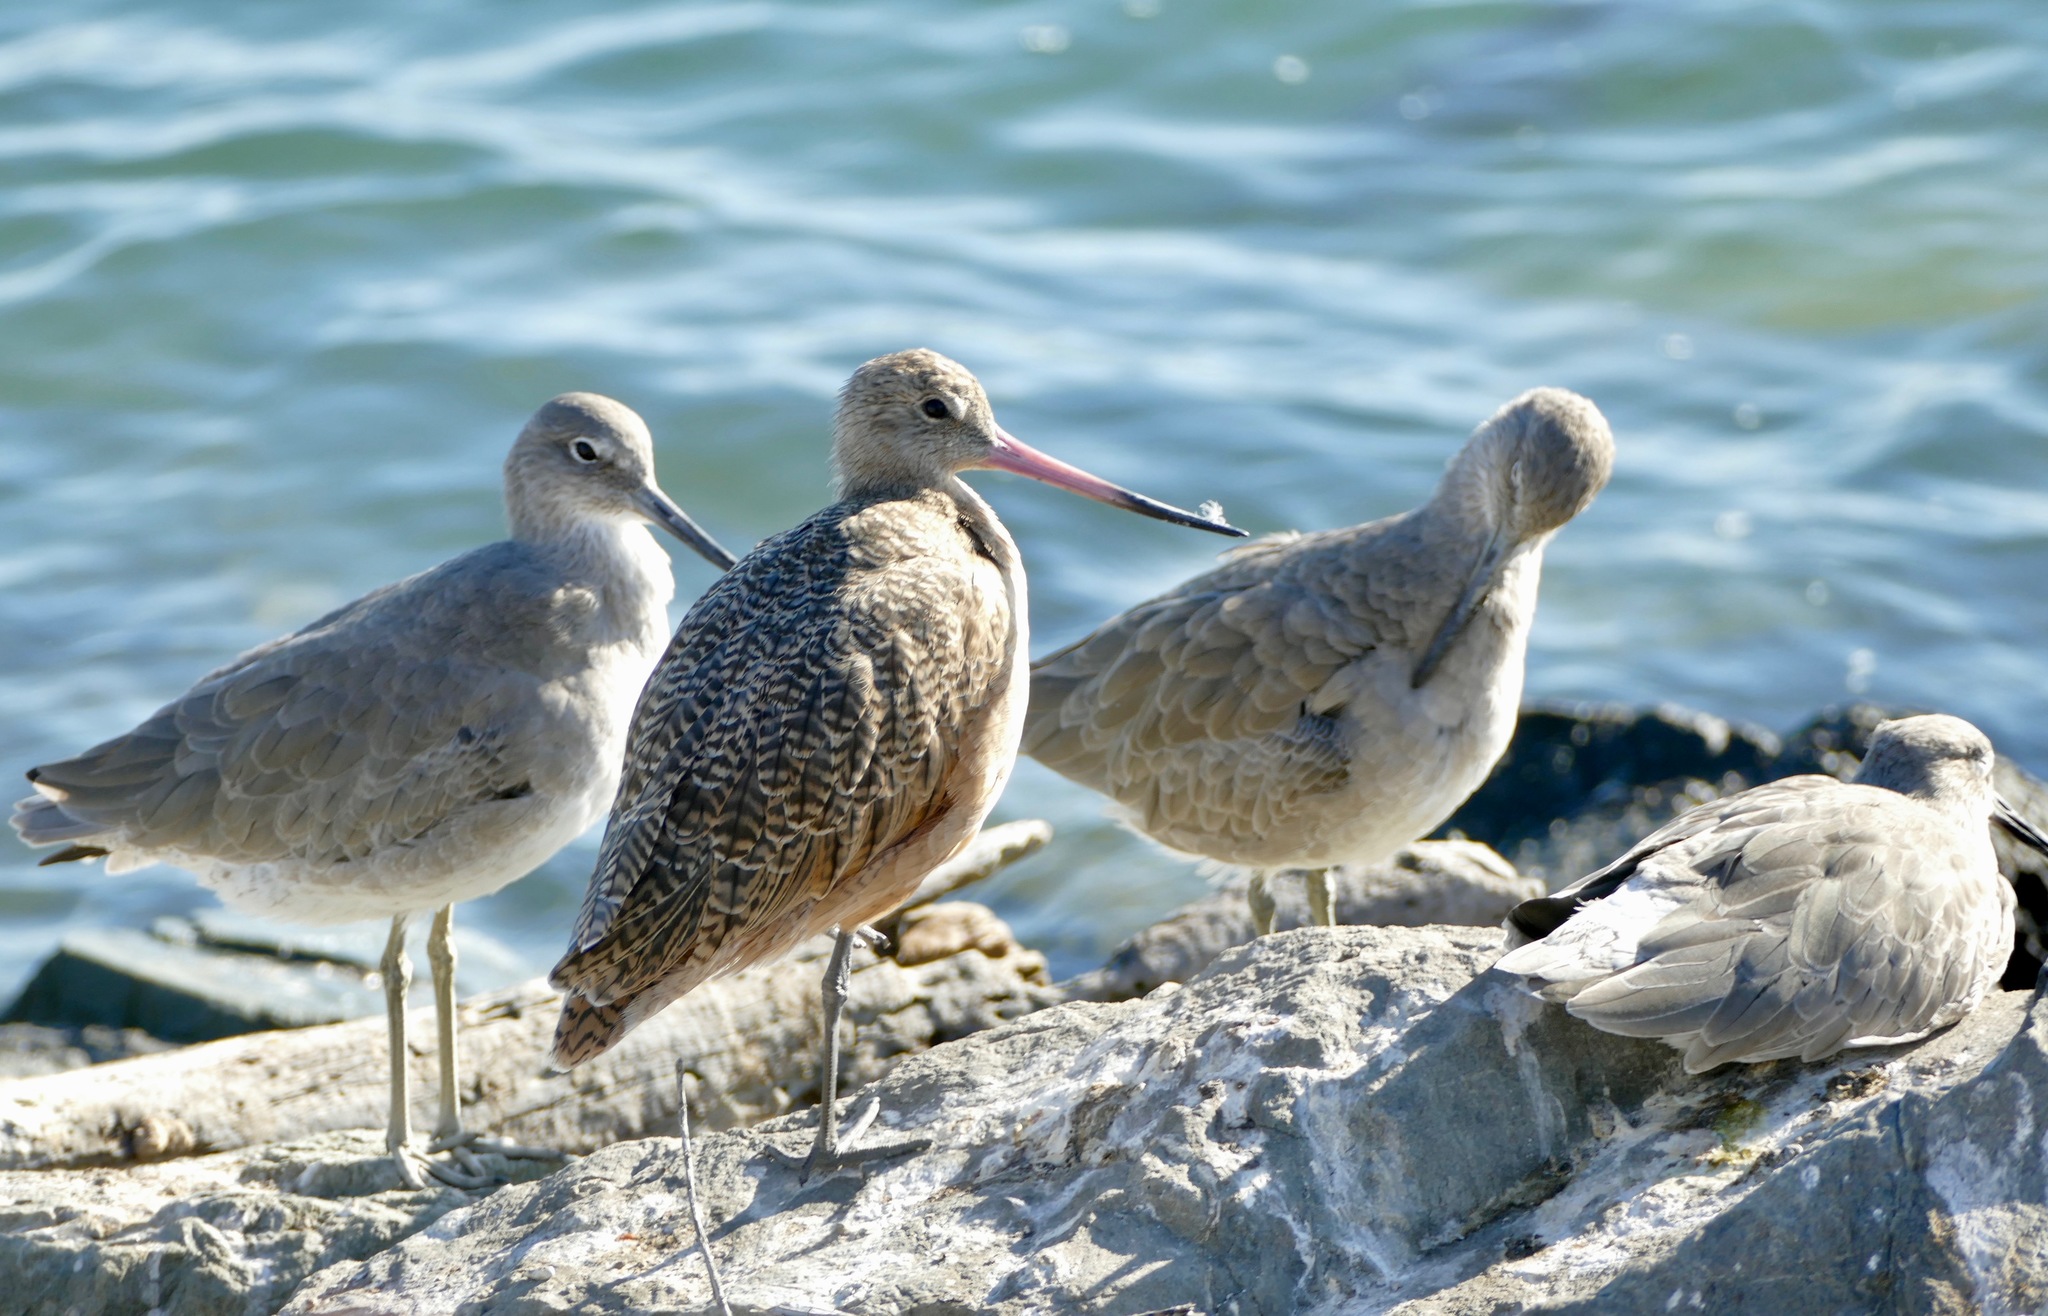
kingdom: Animalia
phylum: Chordata
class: Aves
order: Charadriiformes
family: Scolopacidae
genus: Limosa
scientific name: Limosa fedoa
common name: Marbled godwit
